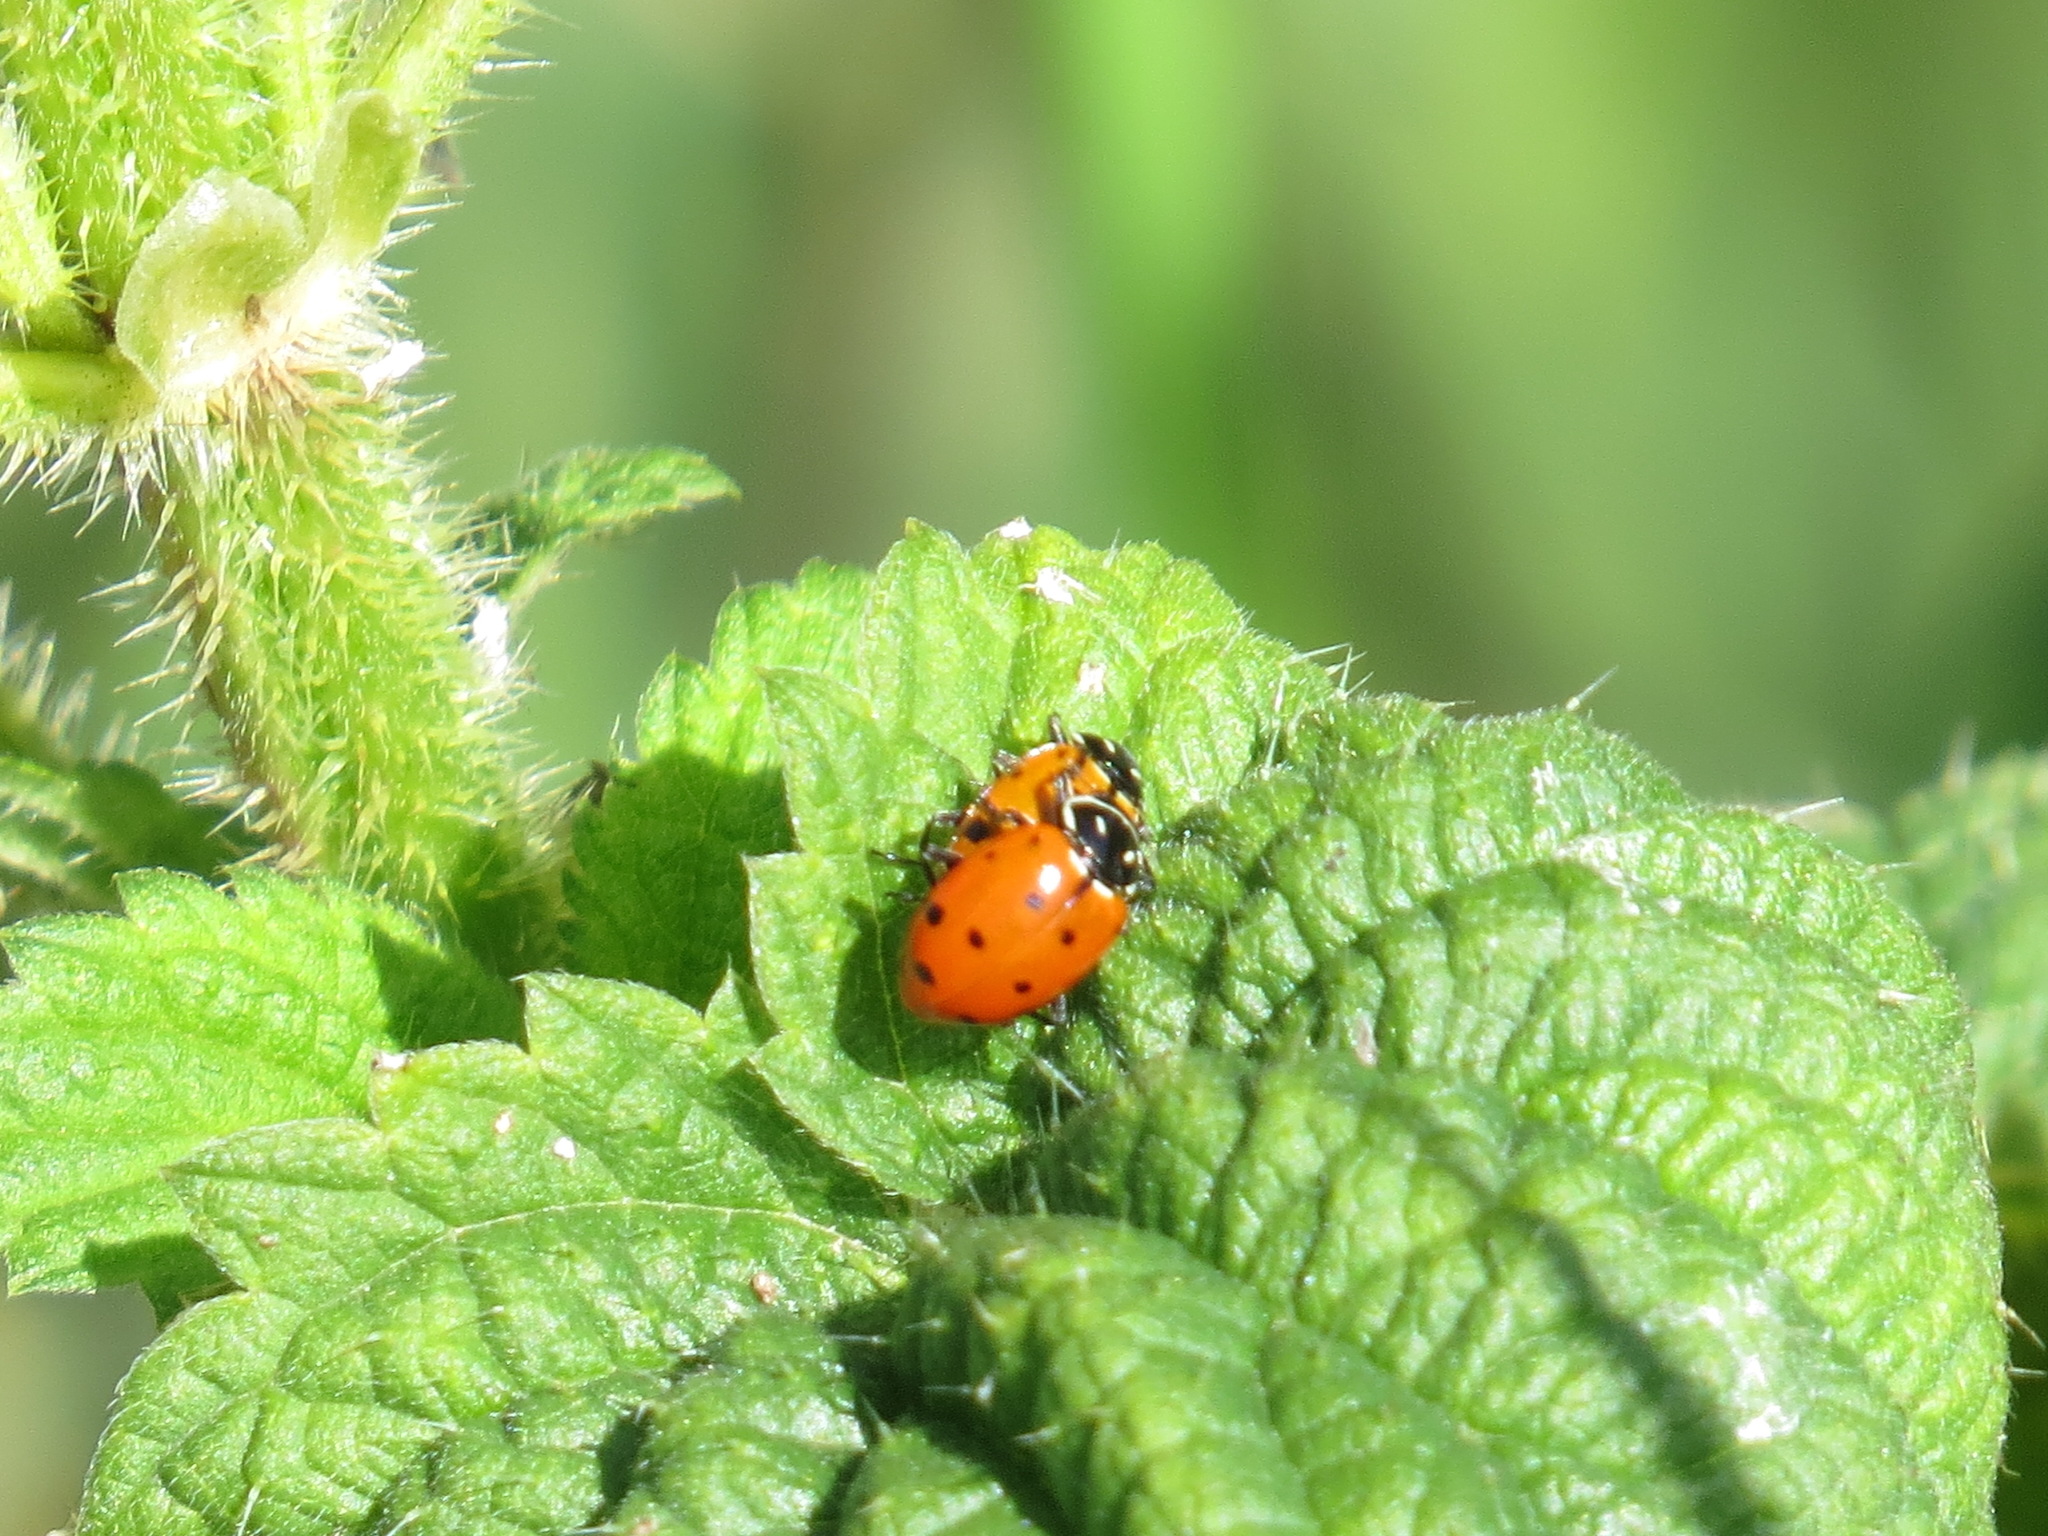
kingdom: Animalia
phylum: Arthropoda
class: Insecta
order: Coleoptera
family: Coccinellidae
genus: Hippodamia
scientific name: Hippodamia convergens
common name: Convergent lady beetle
